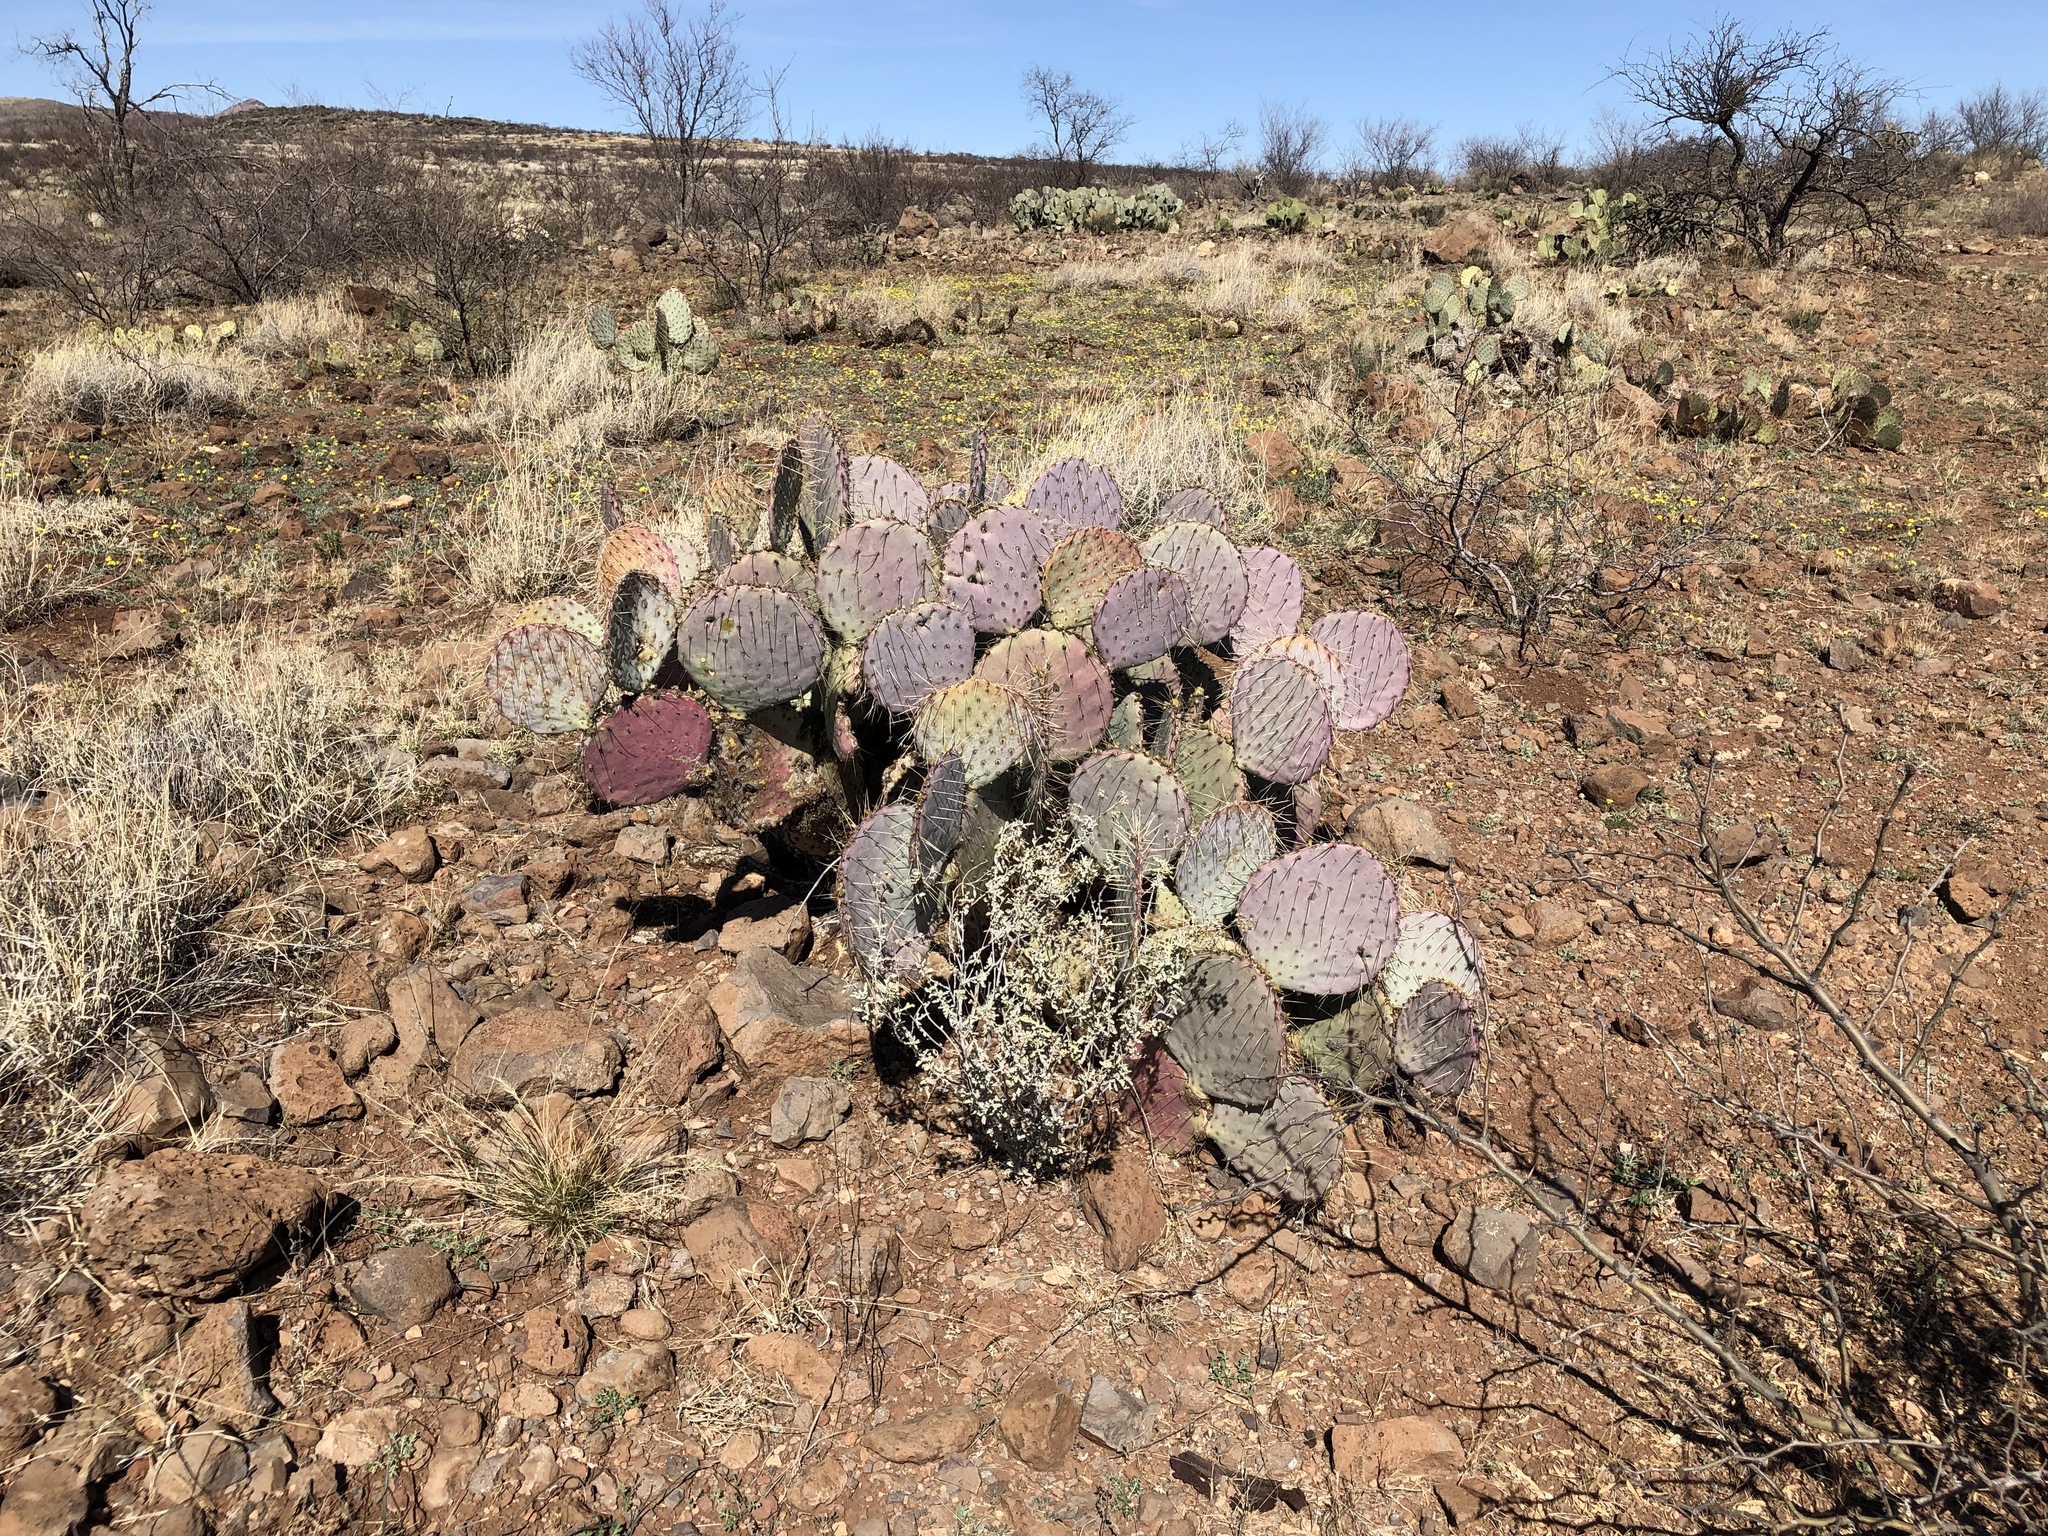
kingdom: Plantae
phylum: Tracheophyta
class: Magnoliopsida
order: Caryophyllales
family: Cactaceae
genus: Opuntia
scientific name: Opuntia gosseliniana
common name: Violet prickly-pear
